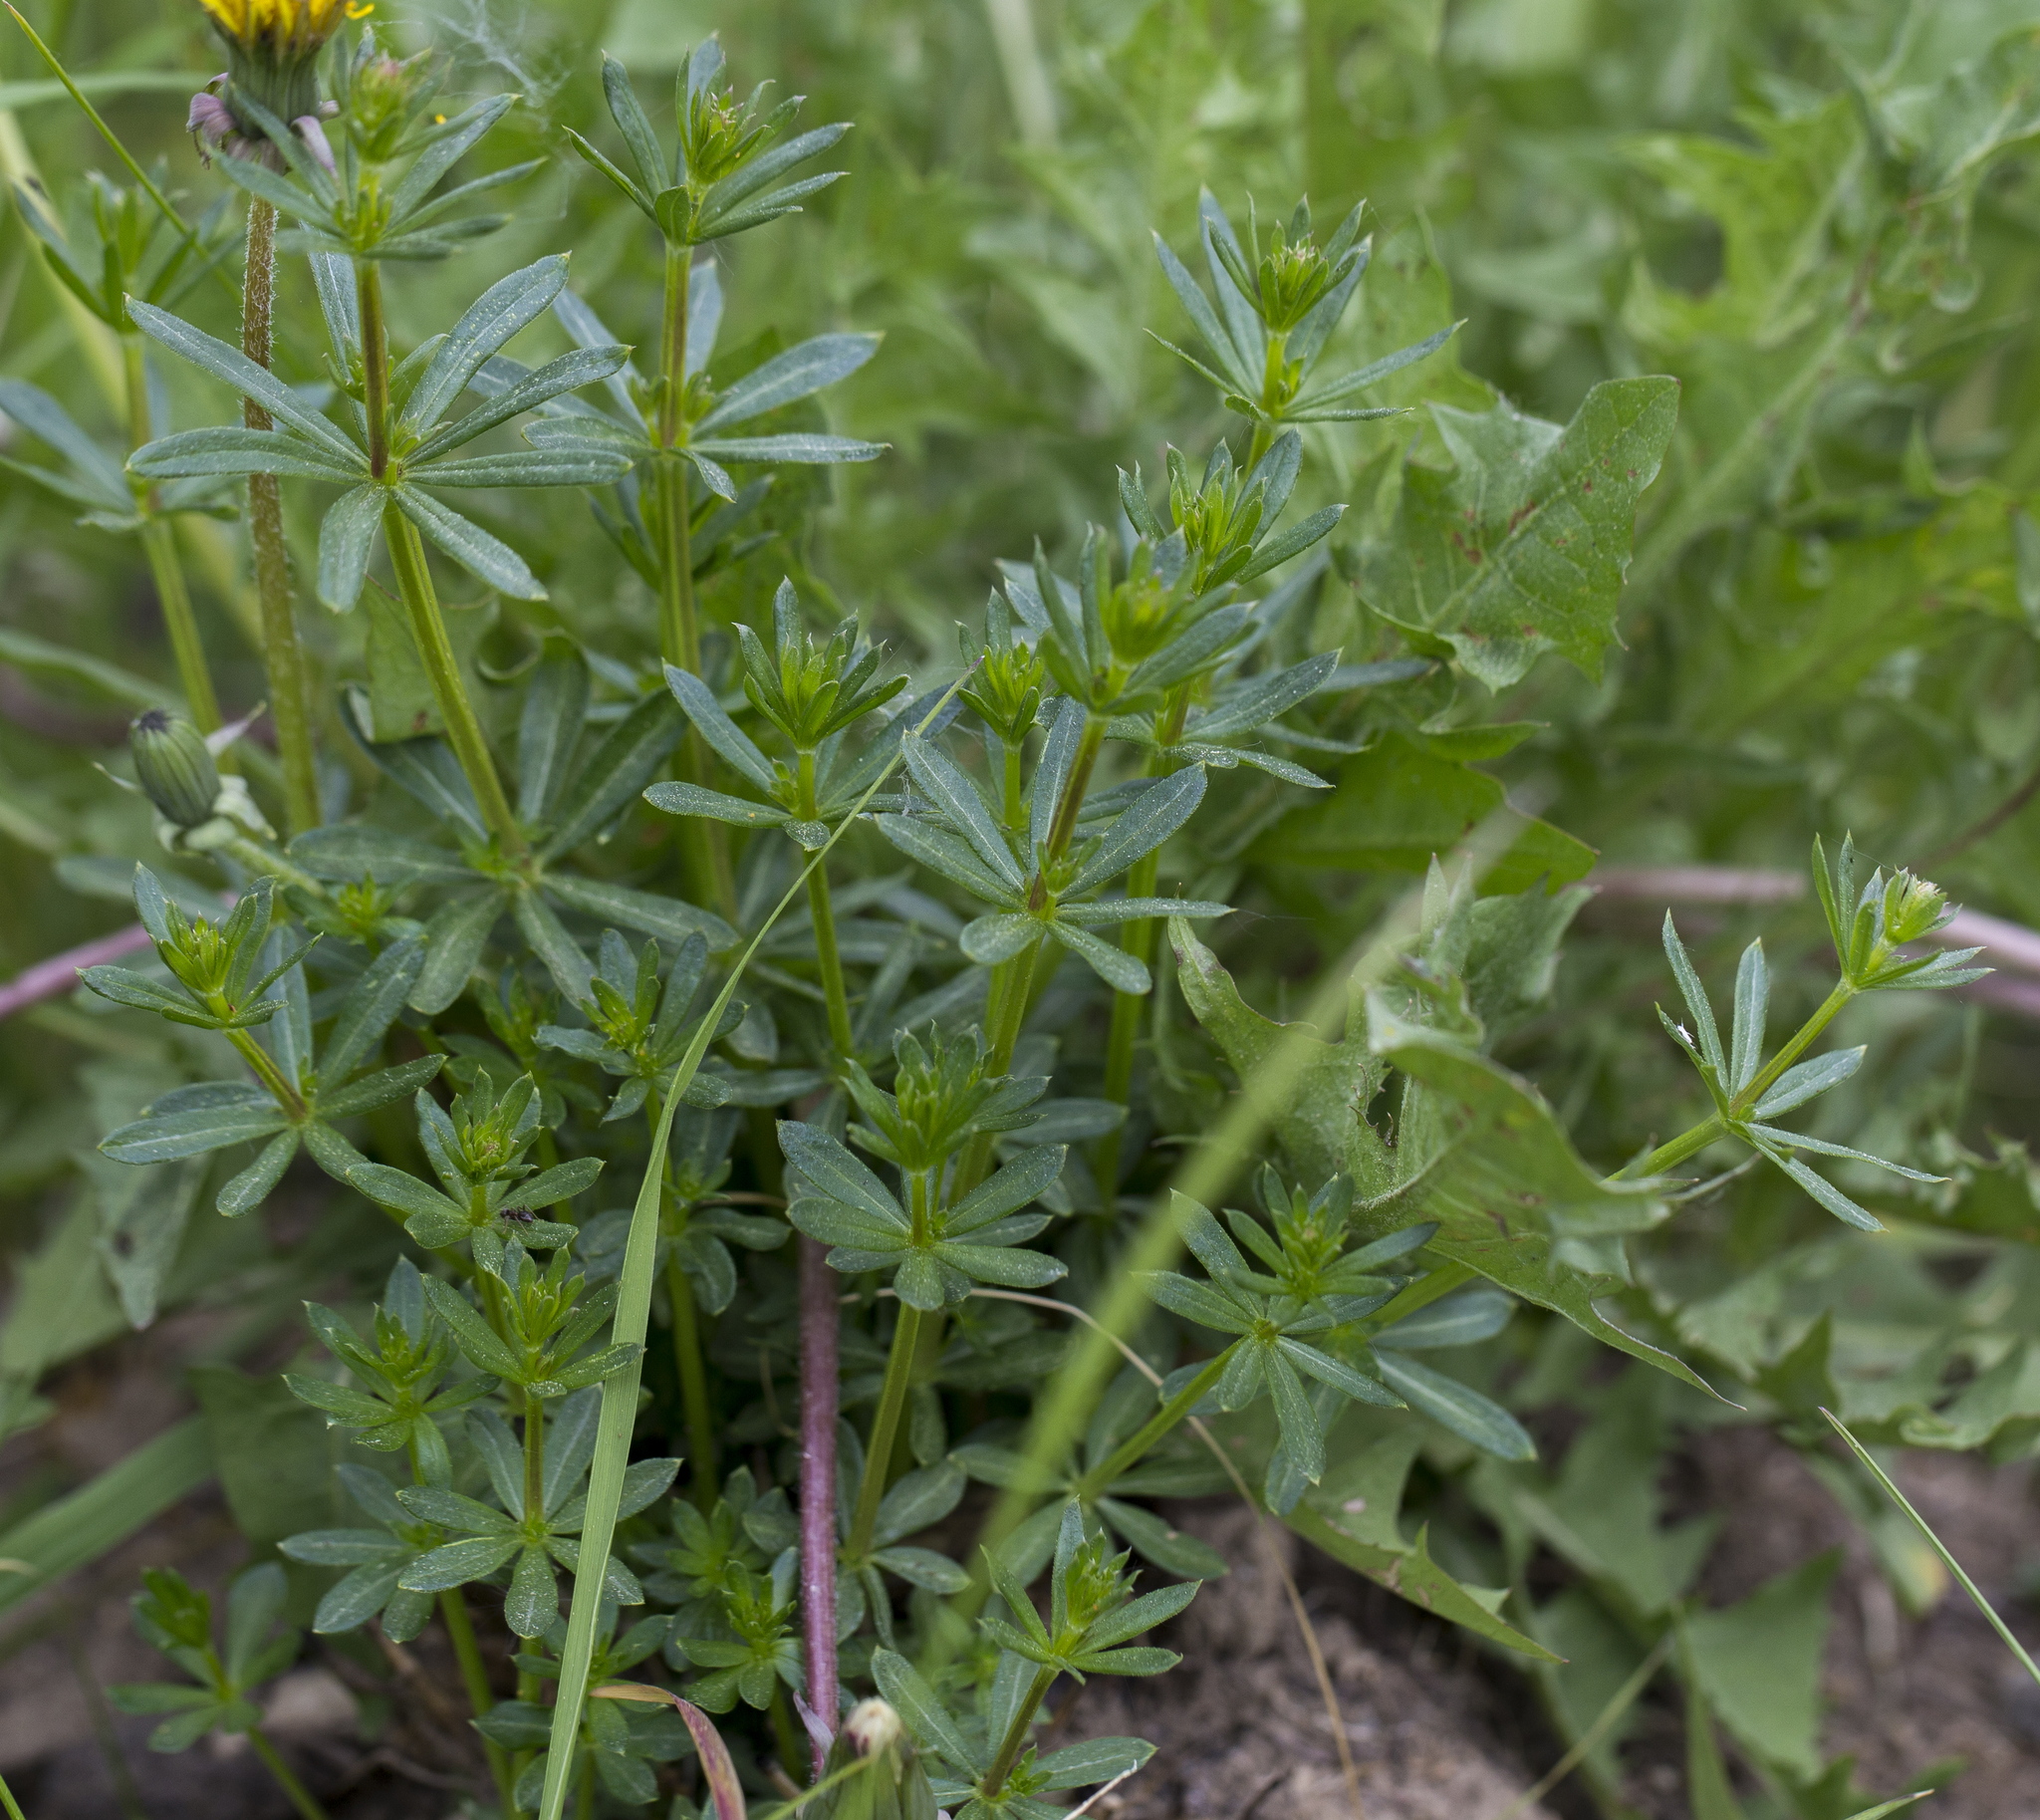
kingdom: Plantae
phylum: Tracheophyta
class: Magnoliopsida
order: Gentianales
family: Rubiaceae
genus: Galium
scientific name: Galium mollugo
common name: Hedge bedstraw
